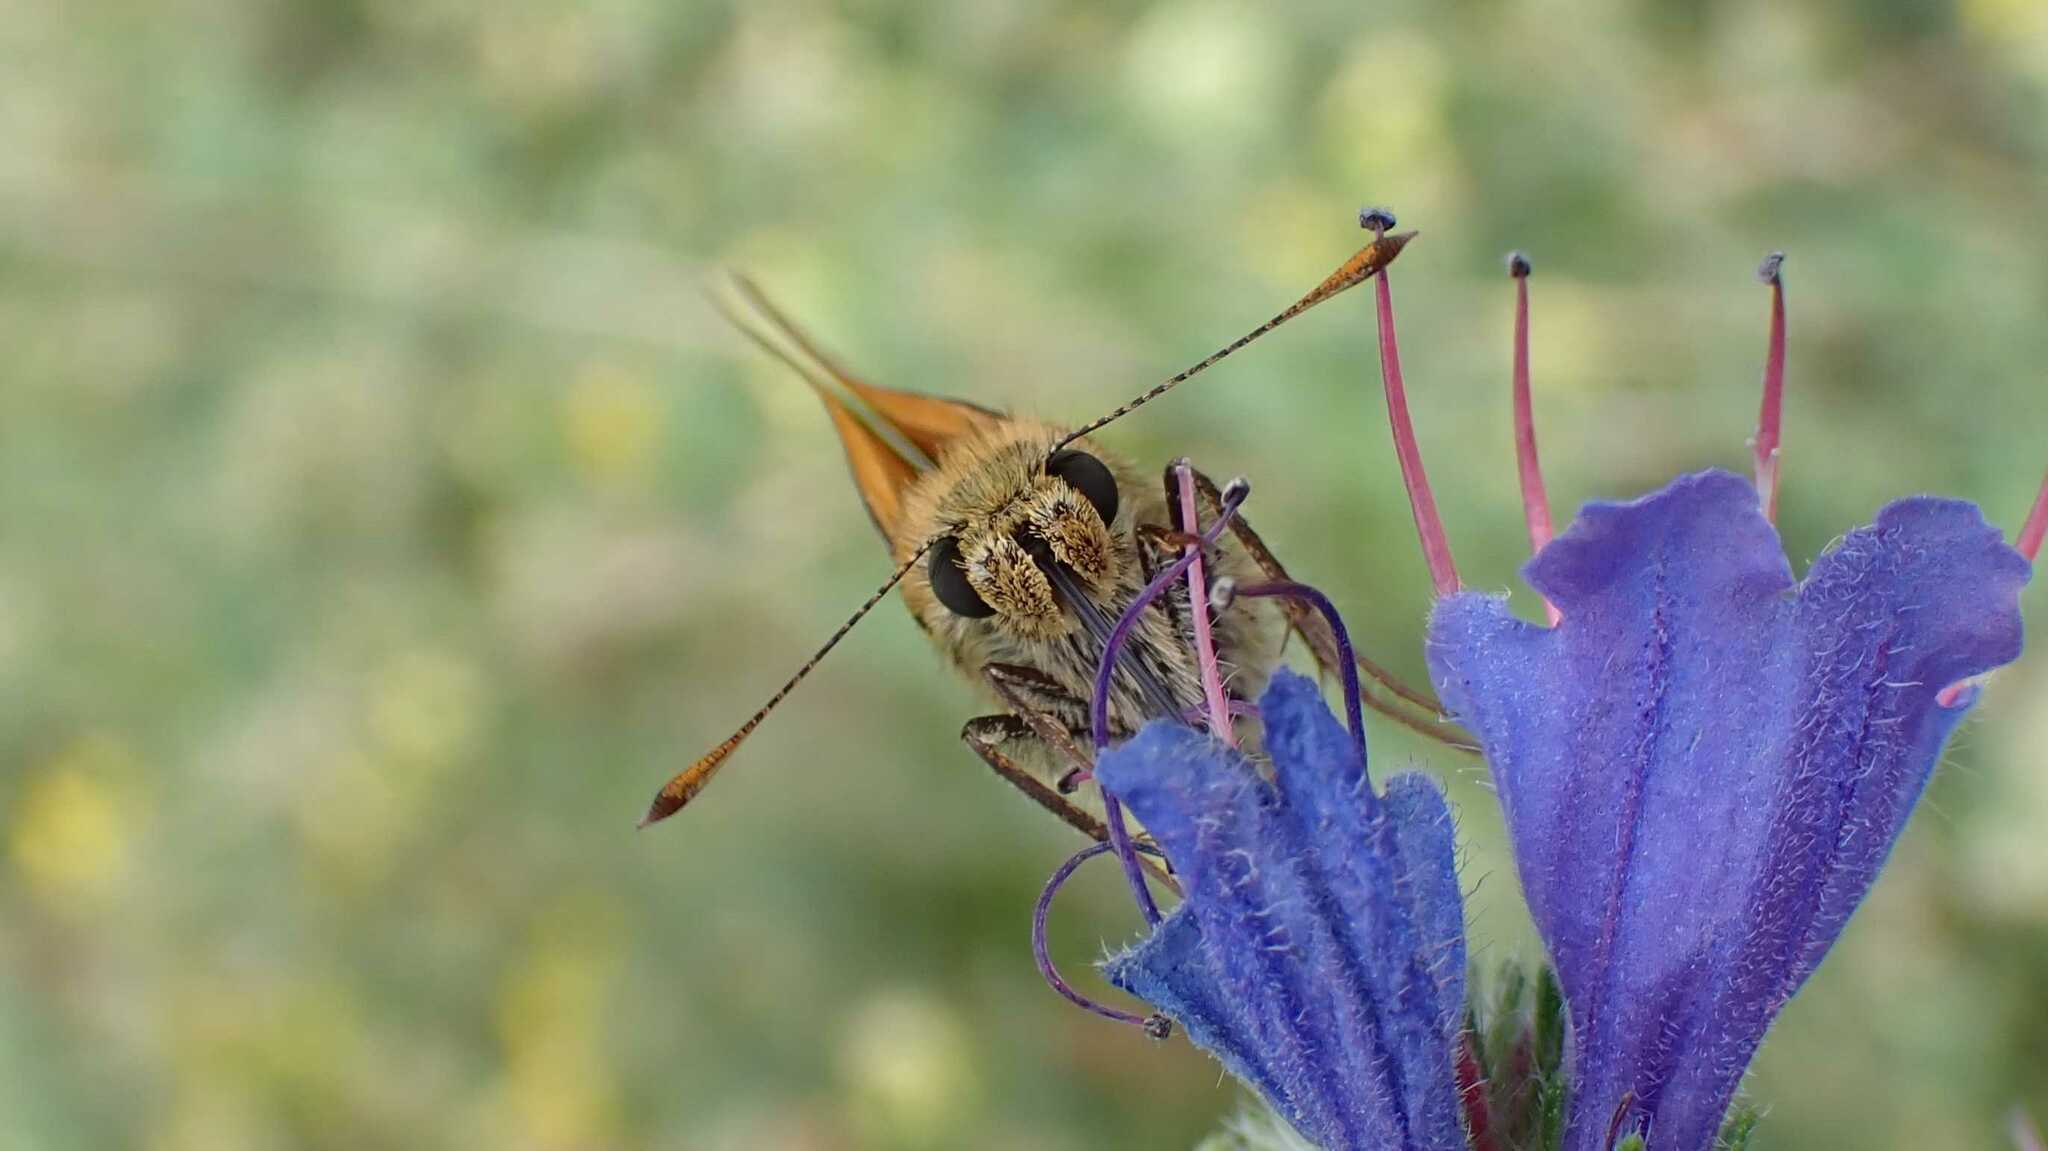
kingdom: Animalia
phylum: Arthropoda
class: Insecta
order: Lepidoptera
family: Hesperiidae
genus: Ochlodes
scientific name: Ochlodes venata
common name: Large skipper
